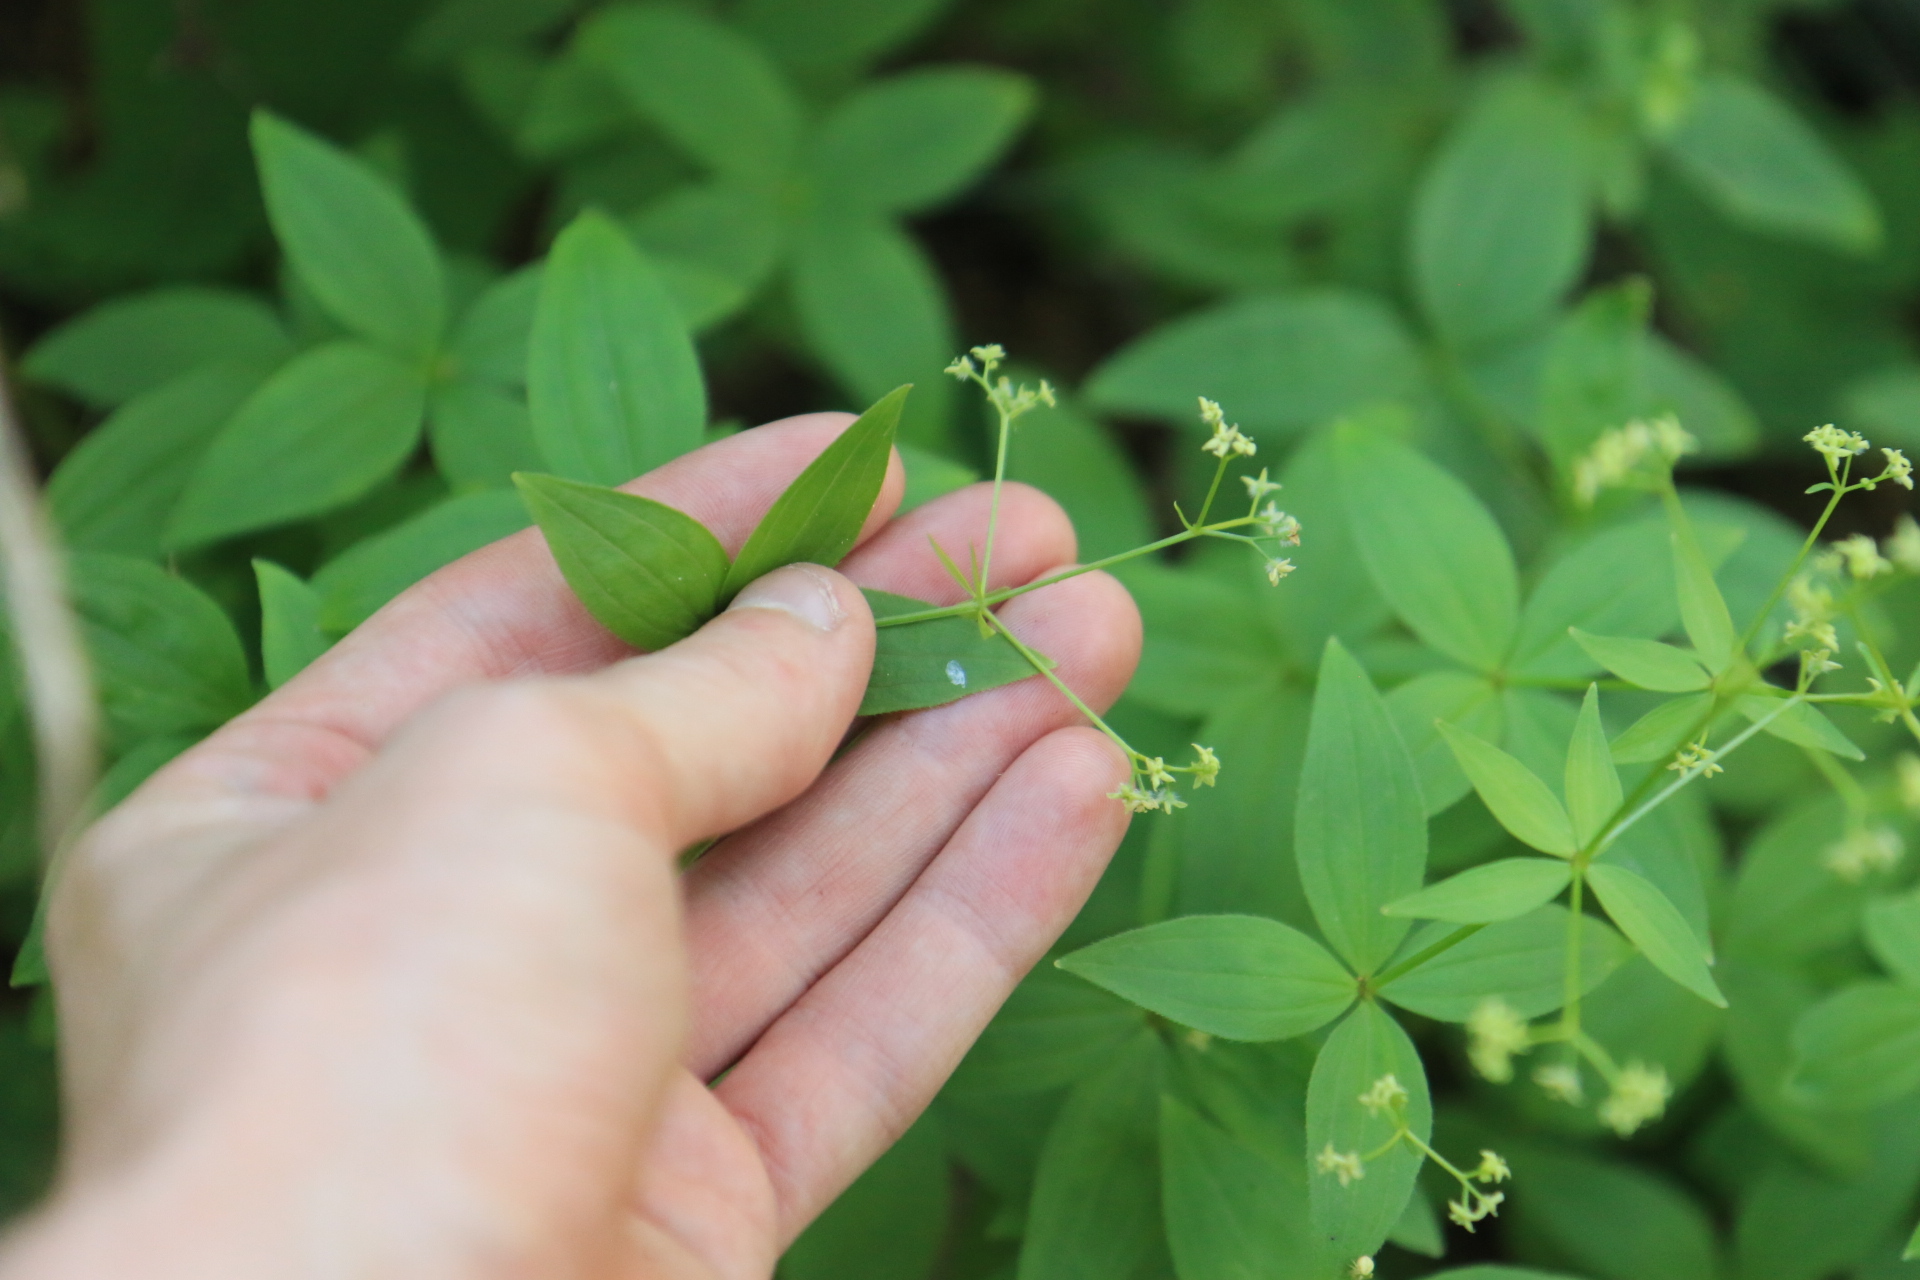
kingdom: Plantae
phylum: Tracheophyta
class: Magnoliopsida
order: Gentianales
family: Rubiaceae
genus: Galium
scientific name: Galium oreganum
